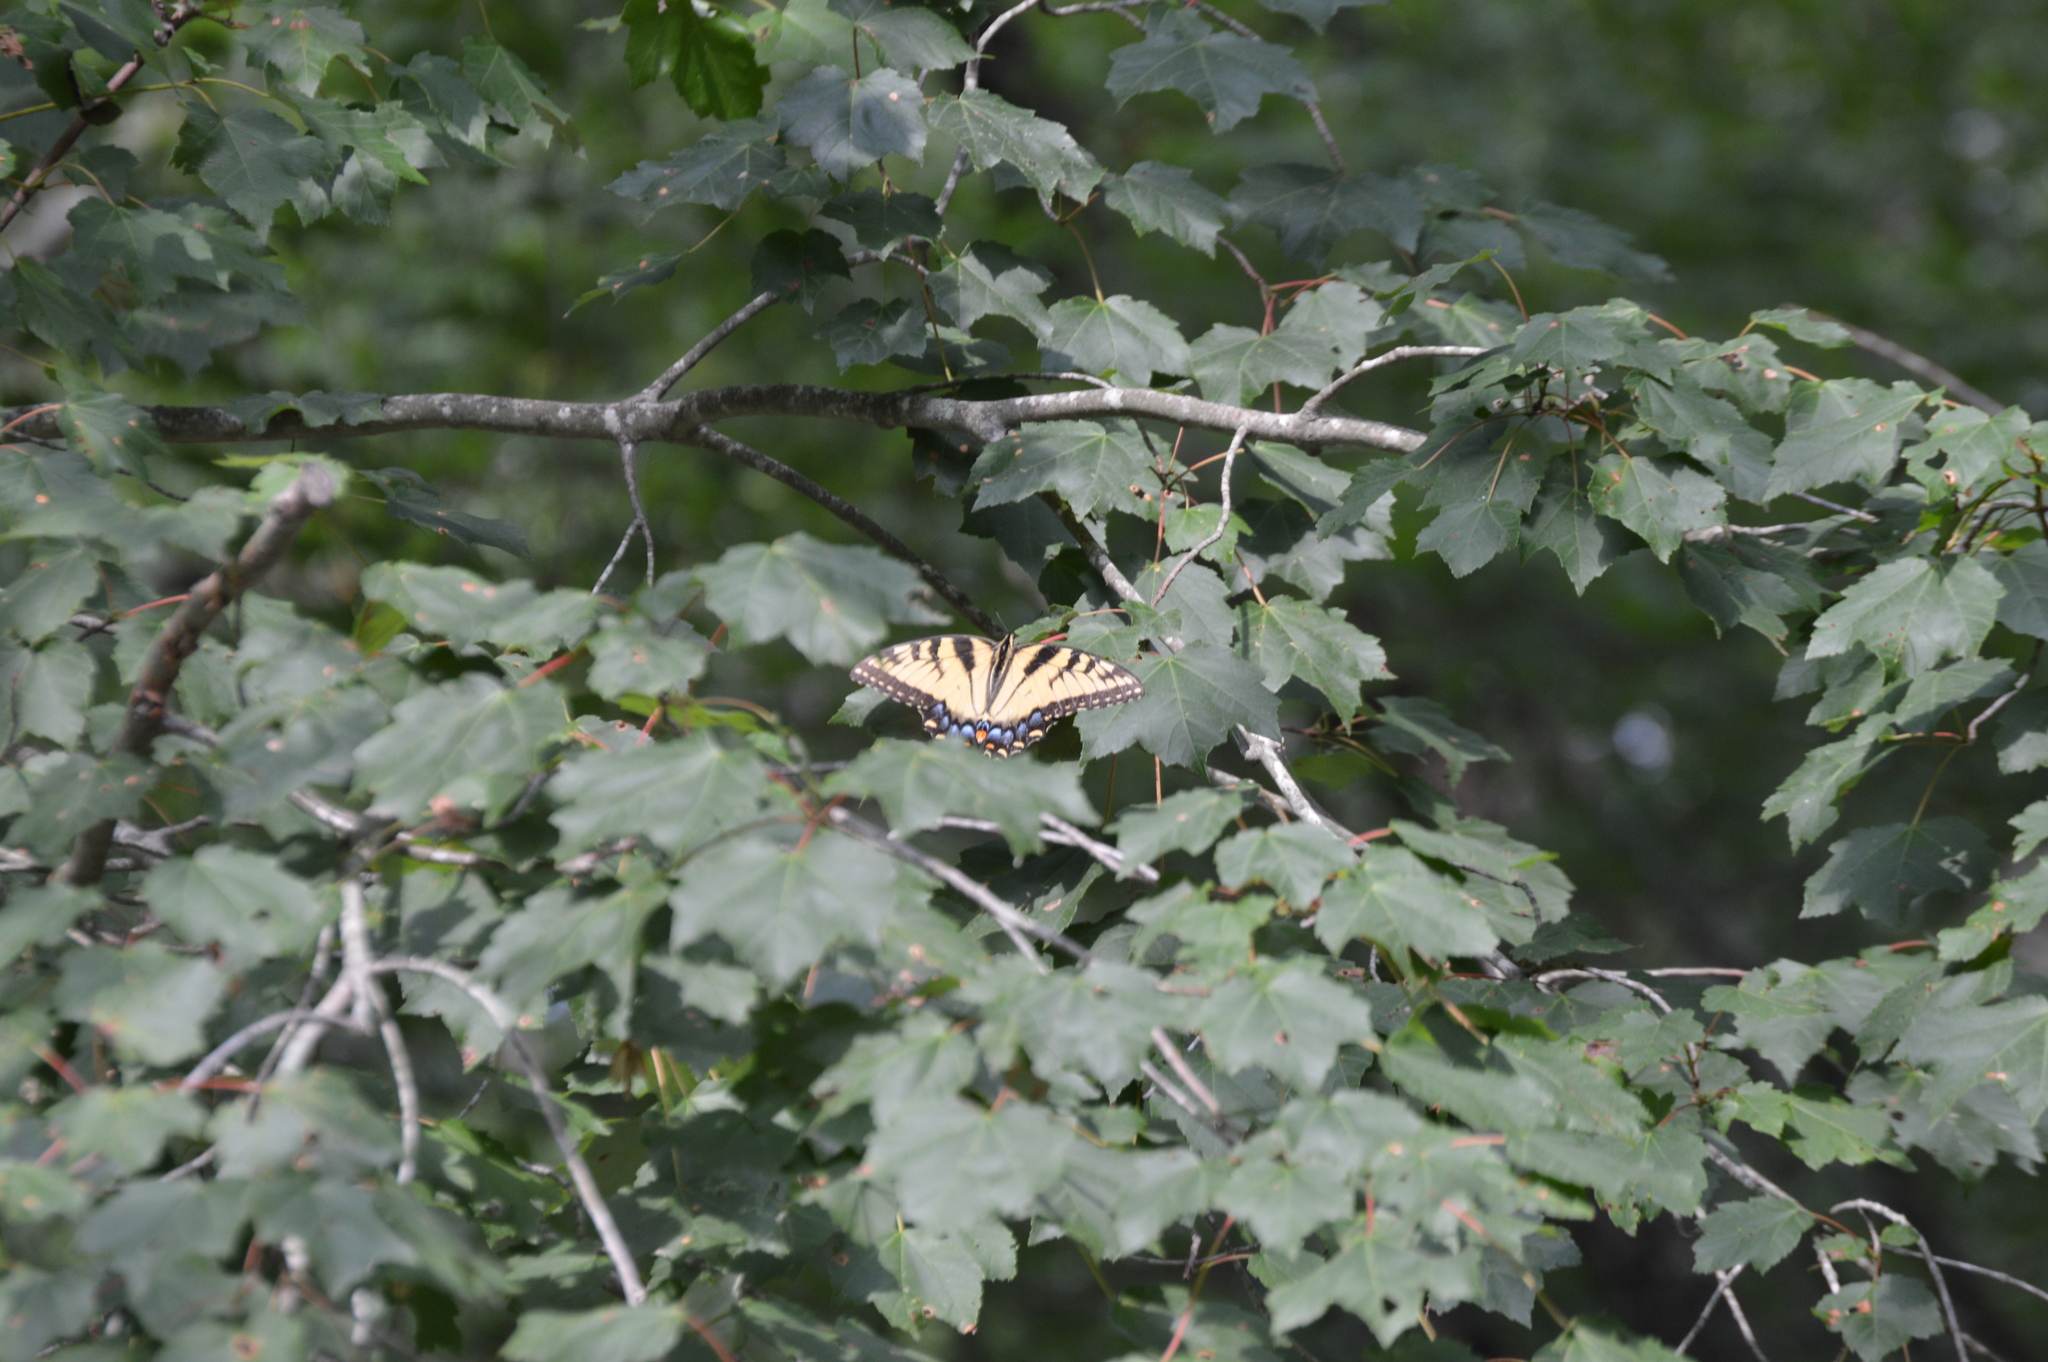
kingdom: Animalia
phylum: Arthropoda
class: Insecta
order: Lepidoptera
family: Papilionidae
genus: Papilio
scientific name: Papilio glaucus
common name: Tiger swallowtail
